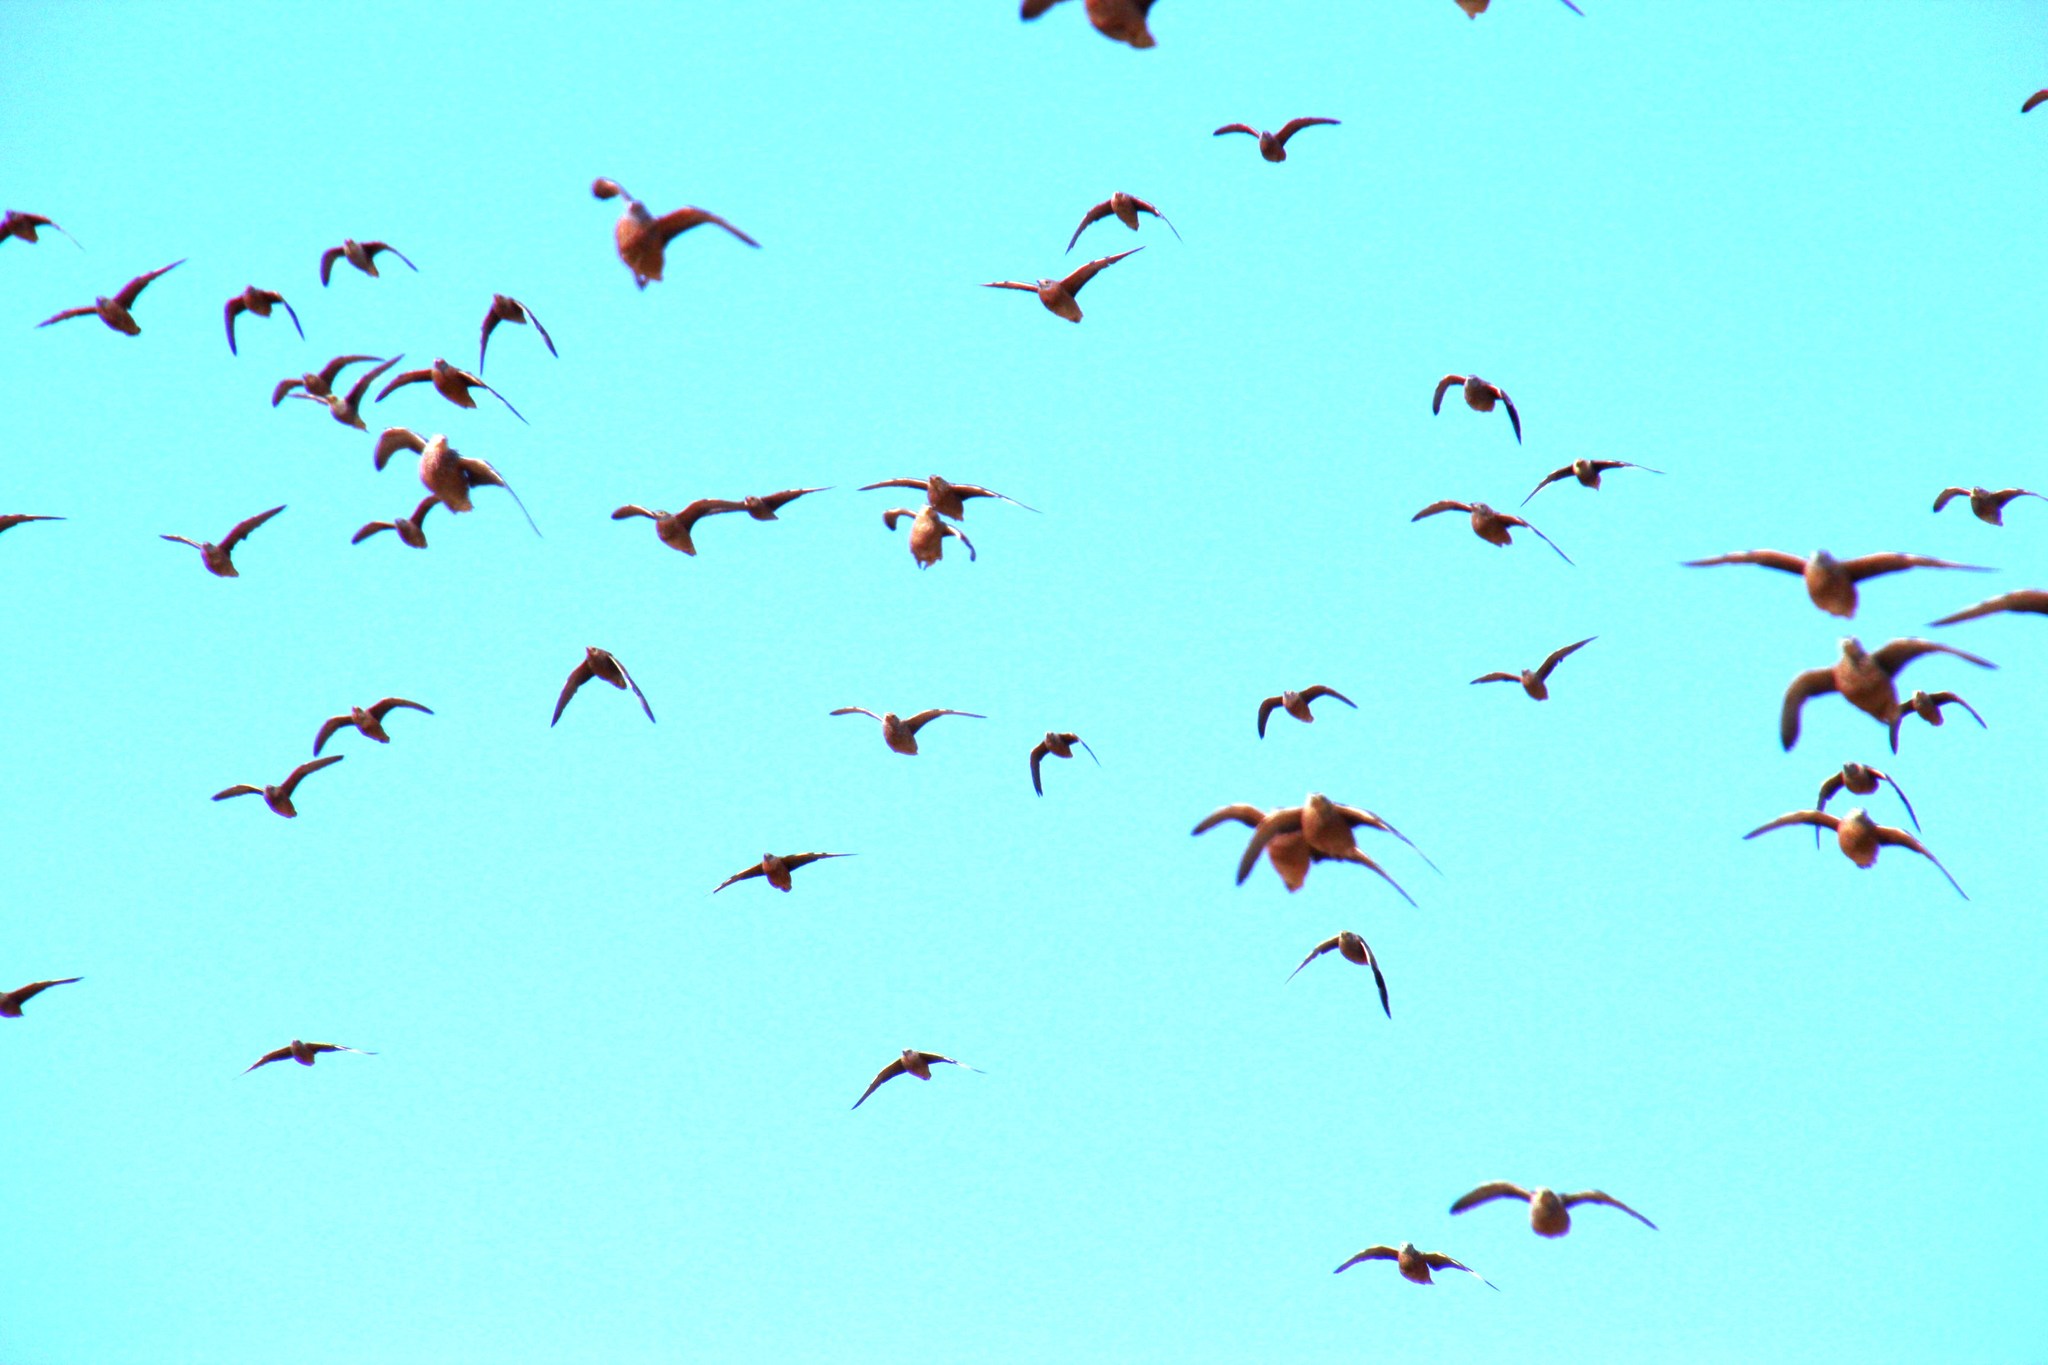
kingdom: Animalia
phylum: Chordata
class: Aves
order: Pteroclidiformes
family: Pteroclididae
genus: Pterocles
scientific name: Pterocles burchelli
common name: Burchell's sandgrouse
